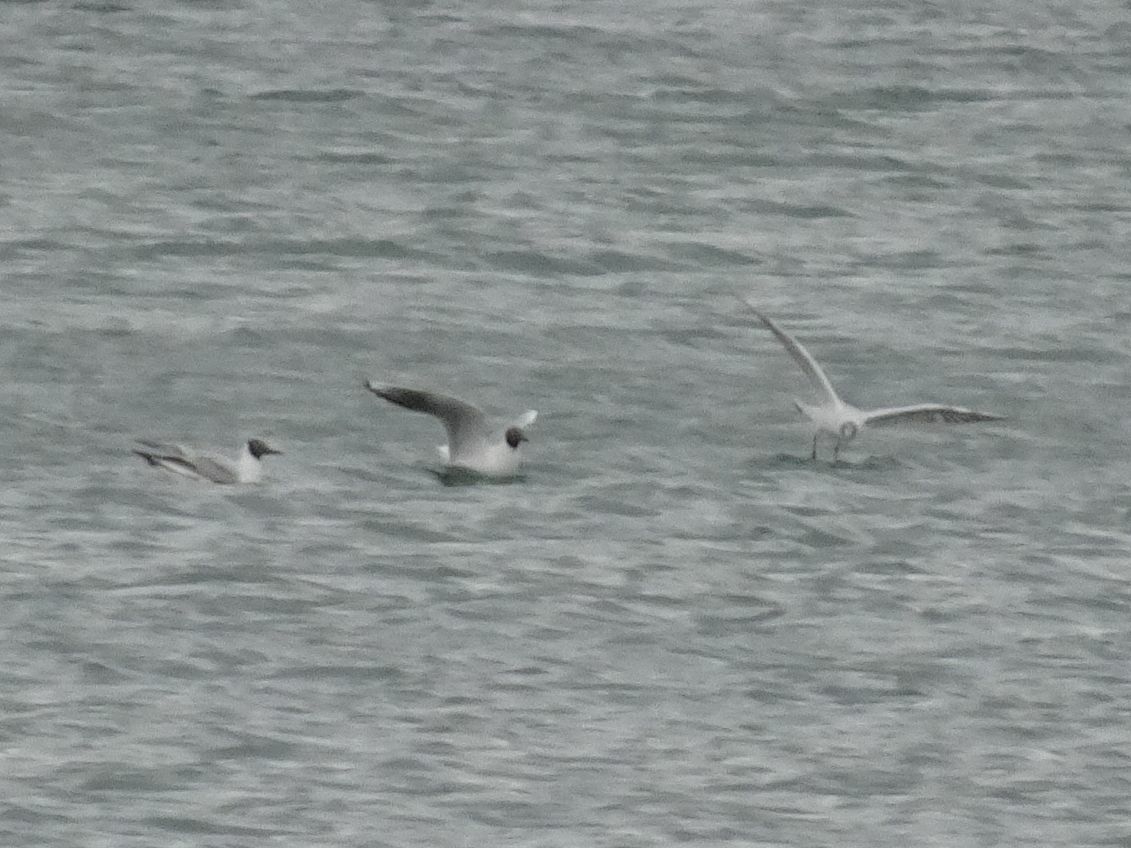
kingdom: Animalia
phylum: Chordata
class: Aves
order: Charadriiformes
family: Laridae
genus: Chroicocephalus
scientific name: Chroicocephalus ridibundus
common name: Black-headed gull
